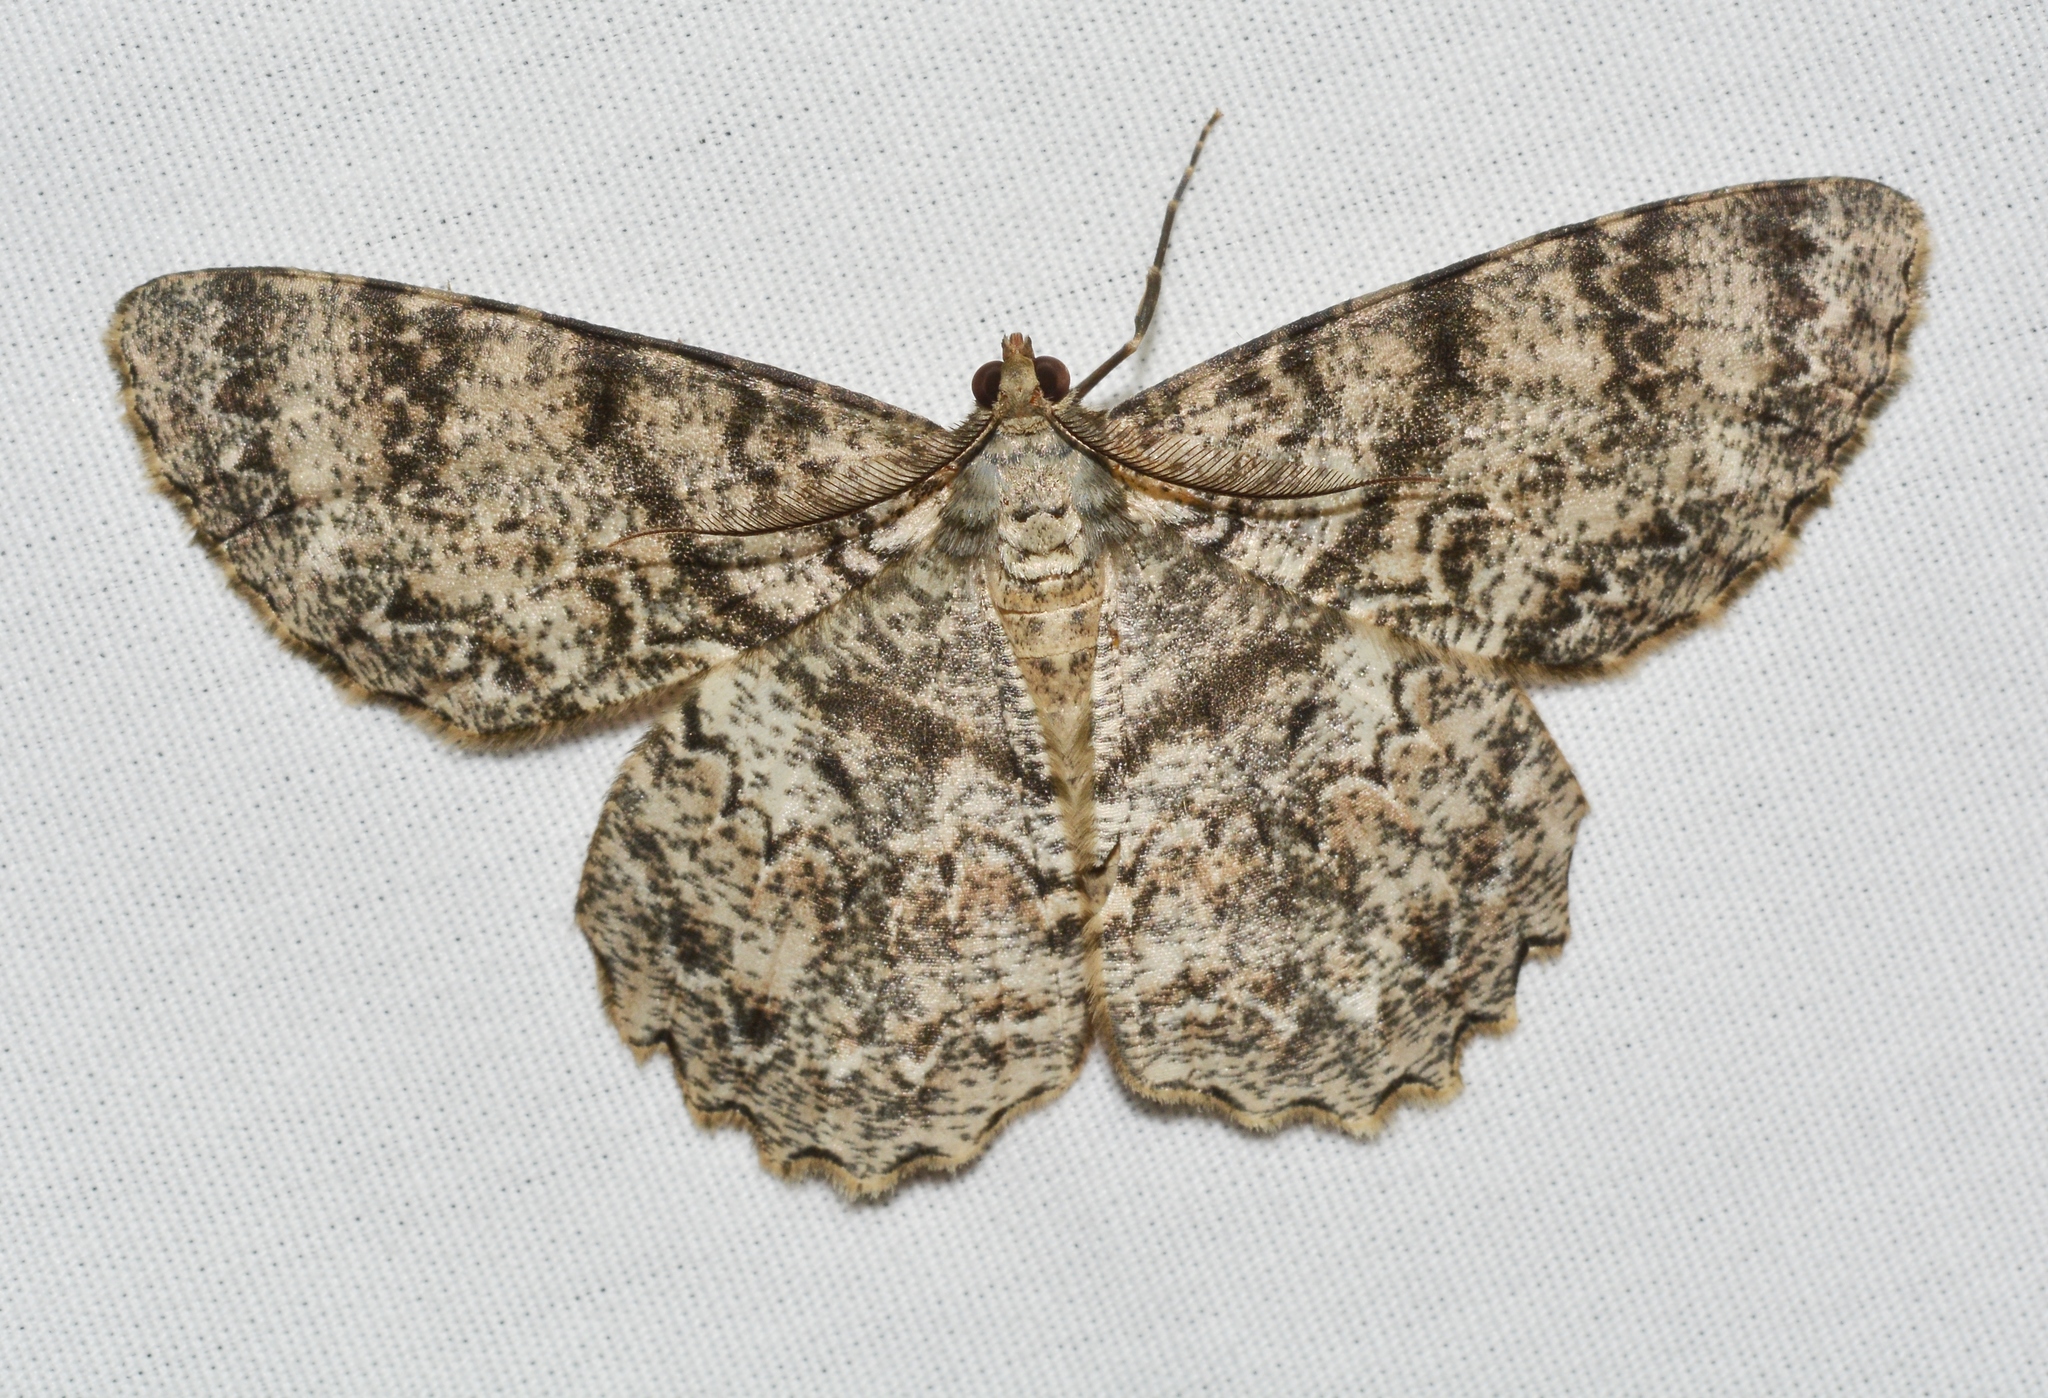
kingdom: Animalia
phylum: Arthropoda
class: Insecta
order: Lepidoptera
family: Geometridae
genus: Epimecis
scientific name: Epimecis hortaria
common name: Tulip-tree beauty
